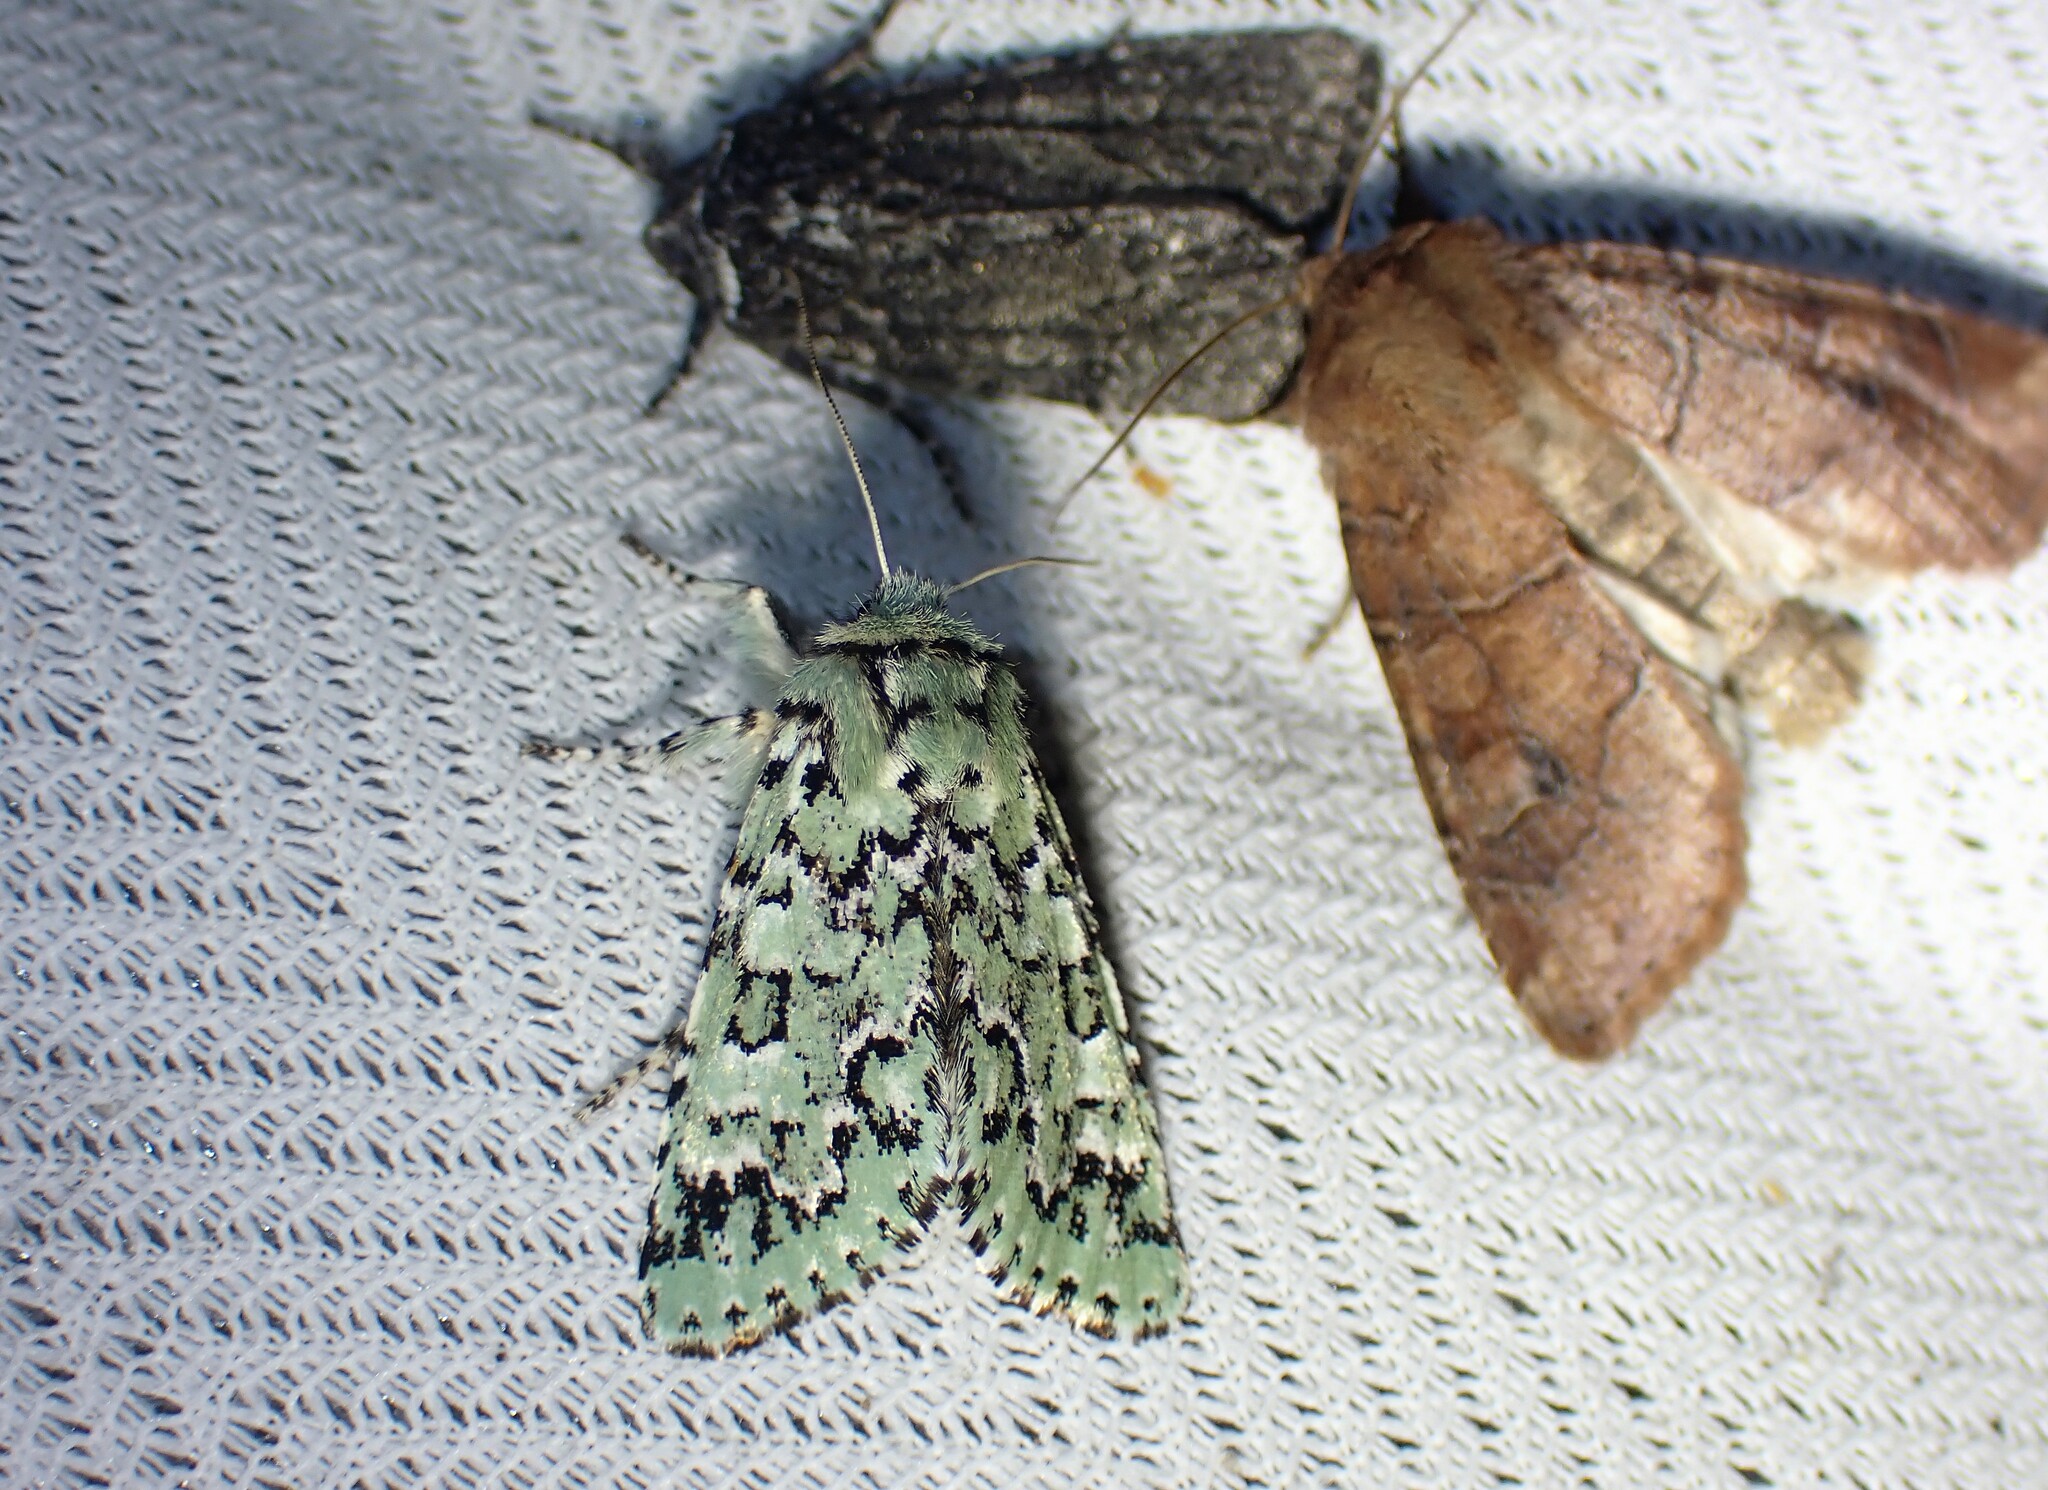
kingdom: Animalia
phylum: Arthropoda
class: Insecta
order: Lepidoptera
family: Noctuidae
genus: Feralia
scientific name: Feralia jocosa
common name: Joker
